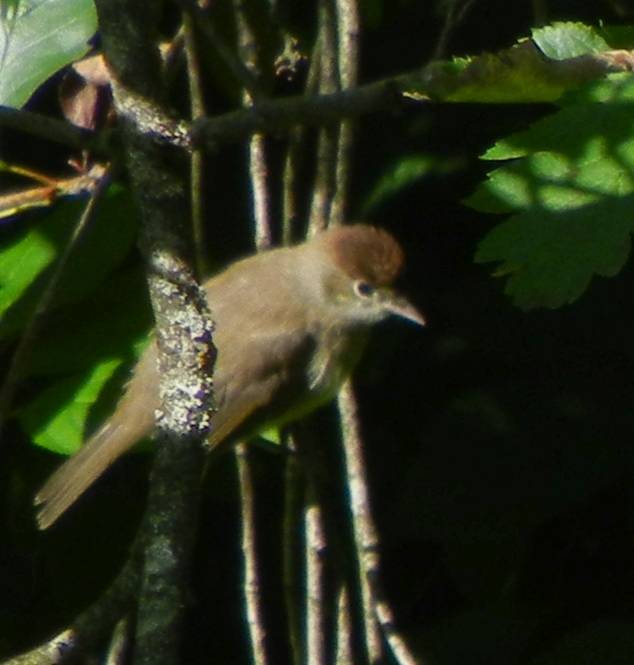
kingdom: Animalia
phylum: Chordata
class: Aves
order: Passeriformes
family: Sylviidae
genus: Sylvia
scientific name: Sylvia atricapilla
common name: Eurasian blackcap
